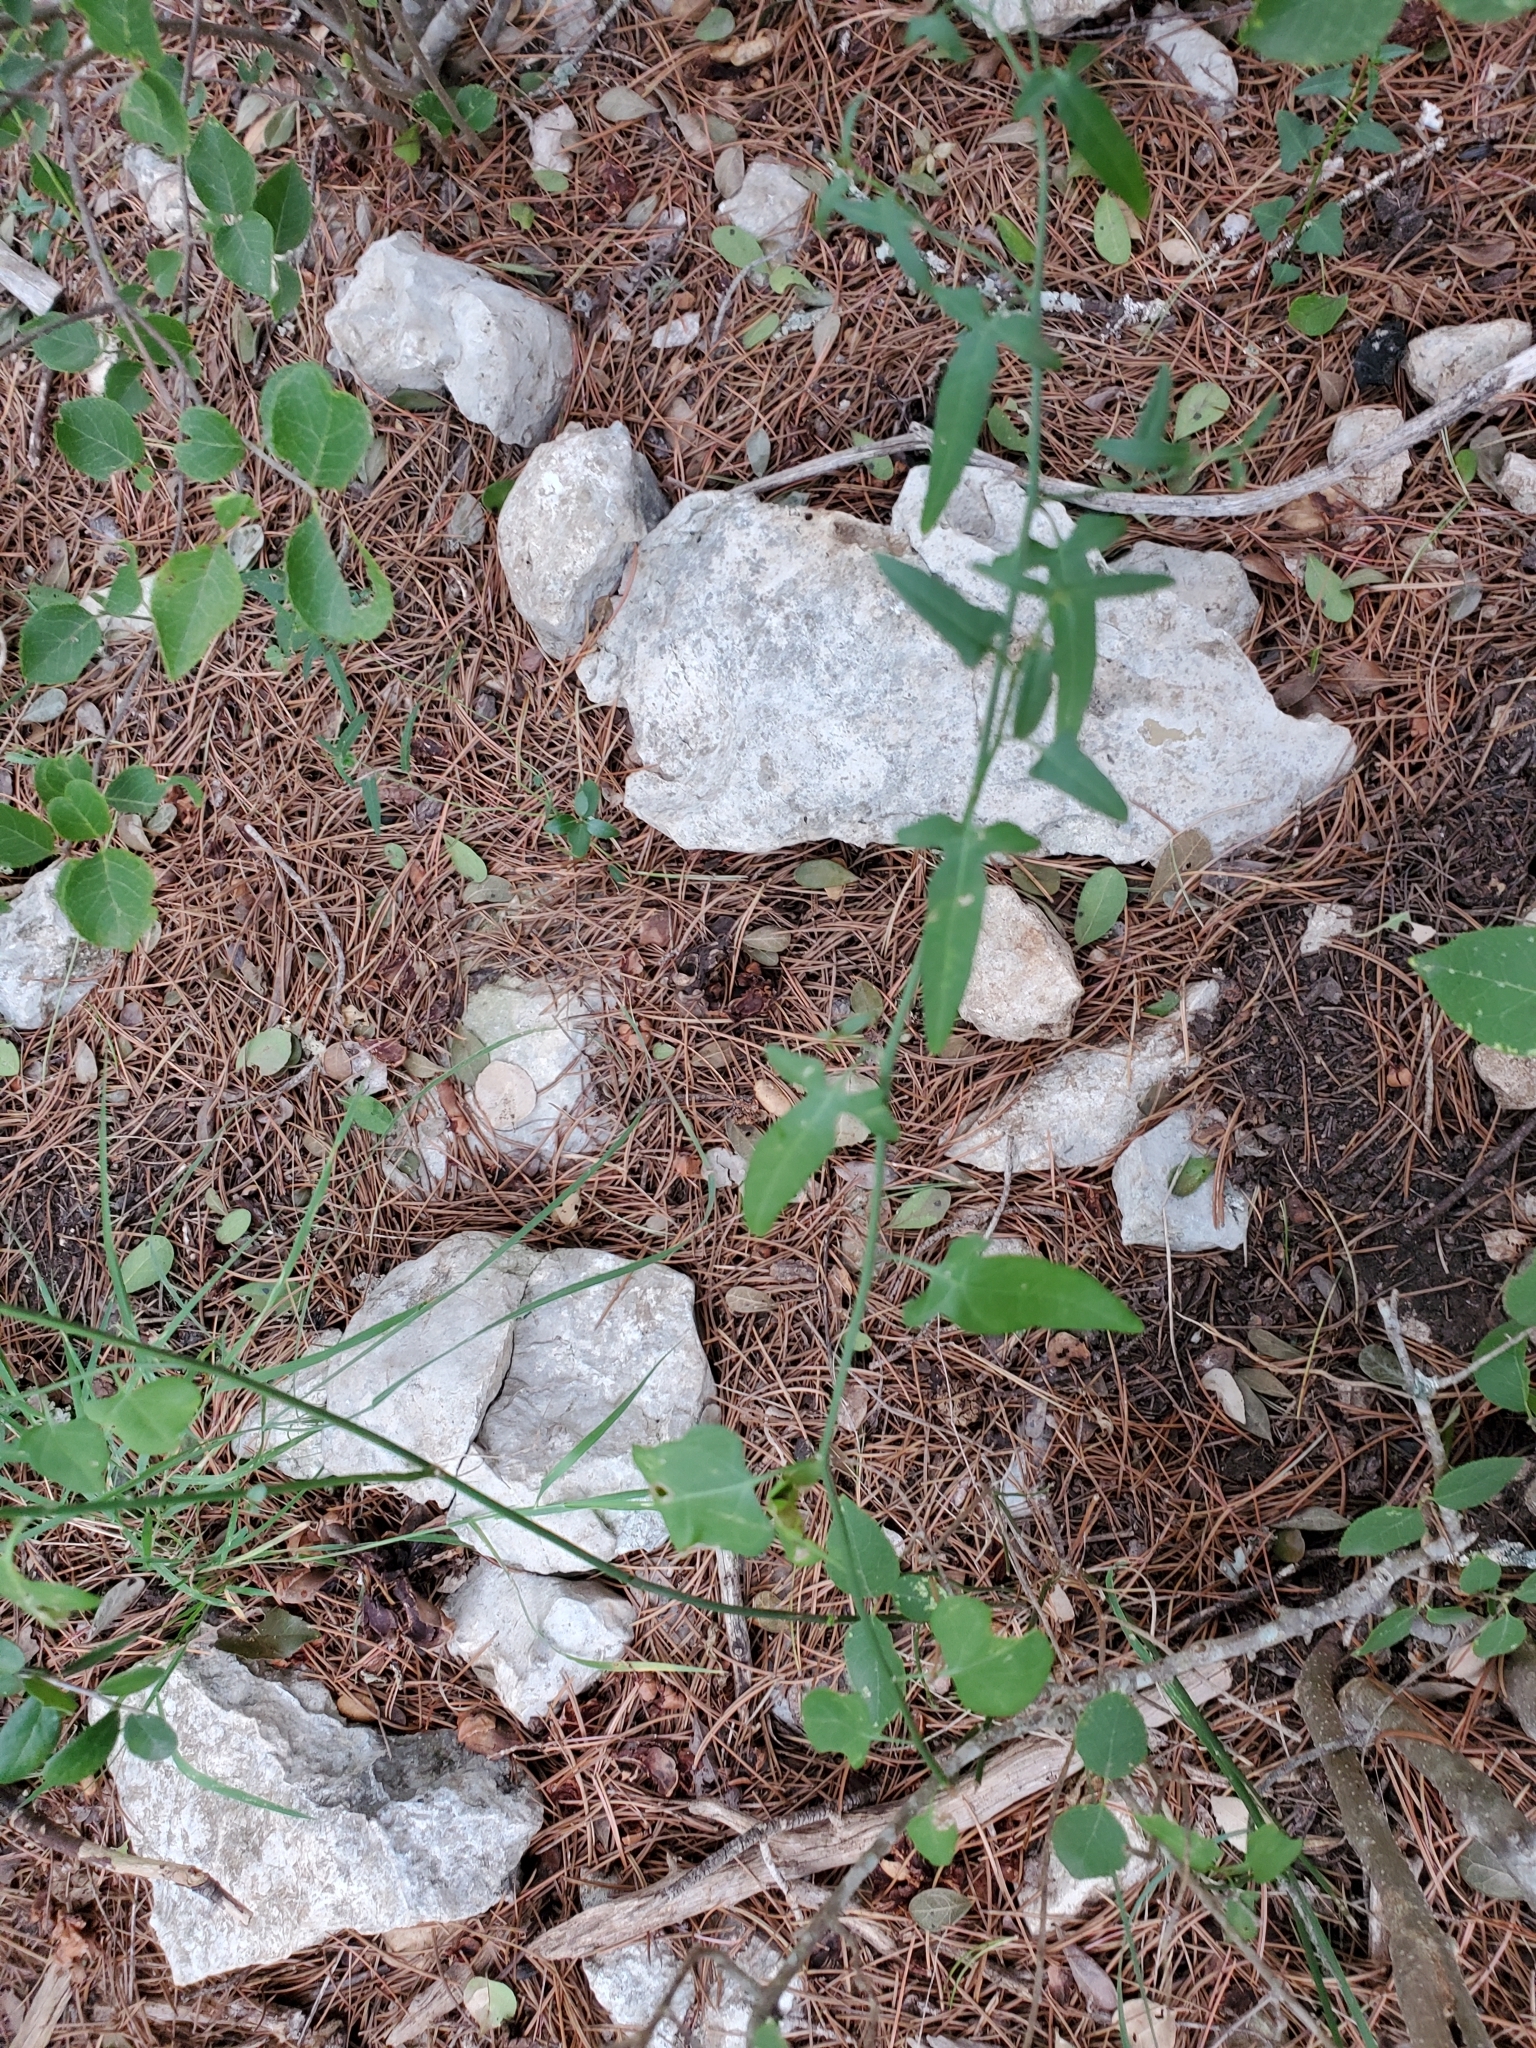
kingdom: Plantae
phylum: Tracheophyta
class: Magnoliopsida
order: Solanales
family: Solanaceae
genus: Solanum
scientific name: Solanum triquetrum
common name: Texas nightshade
